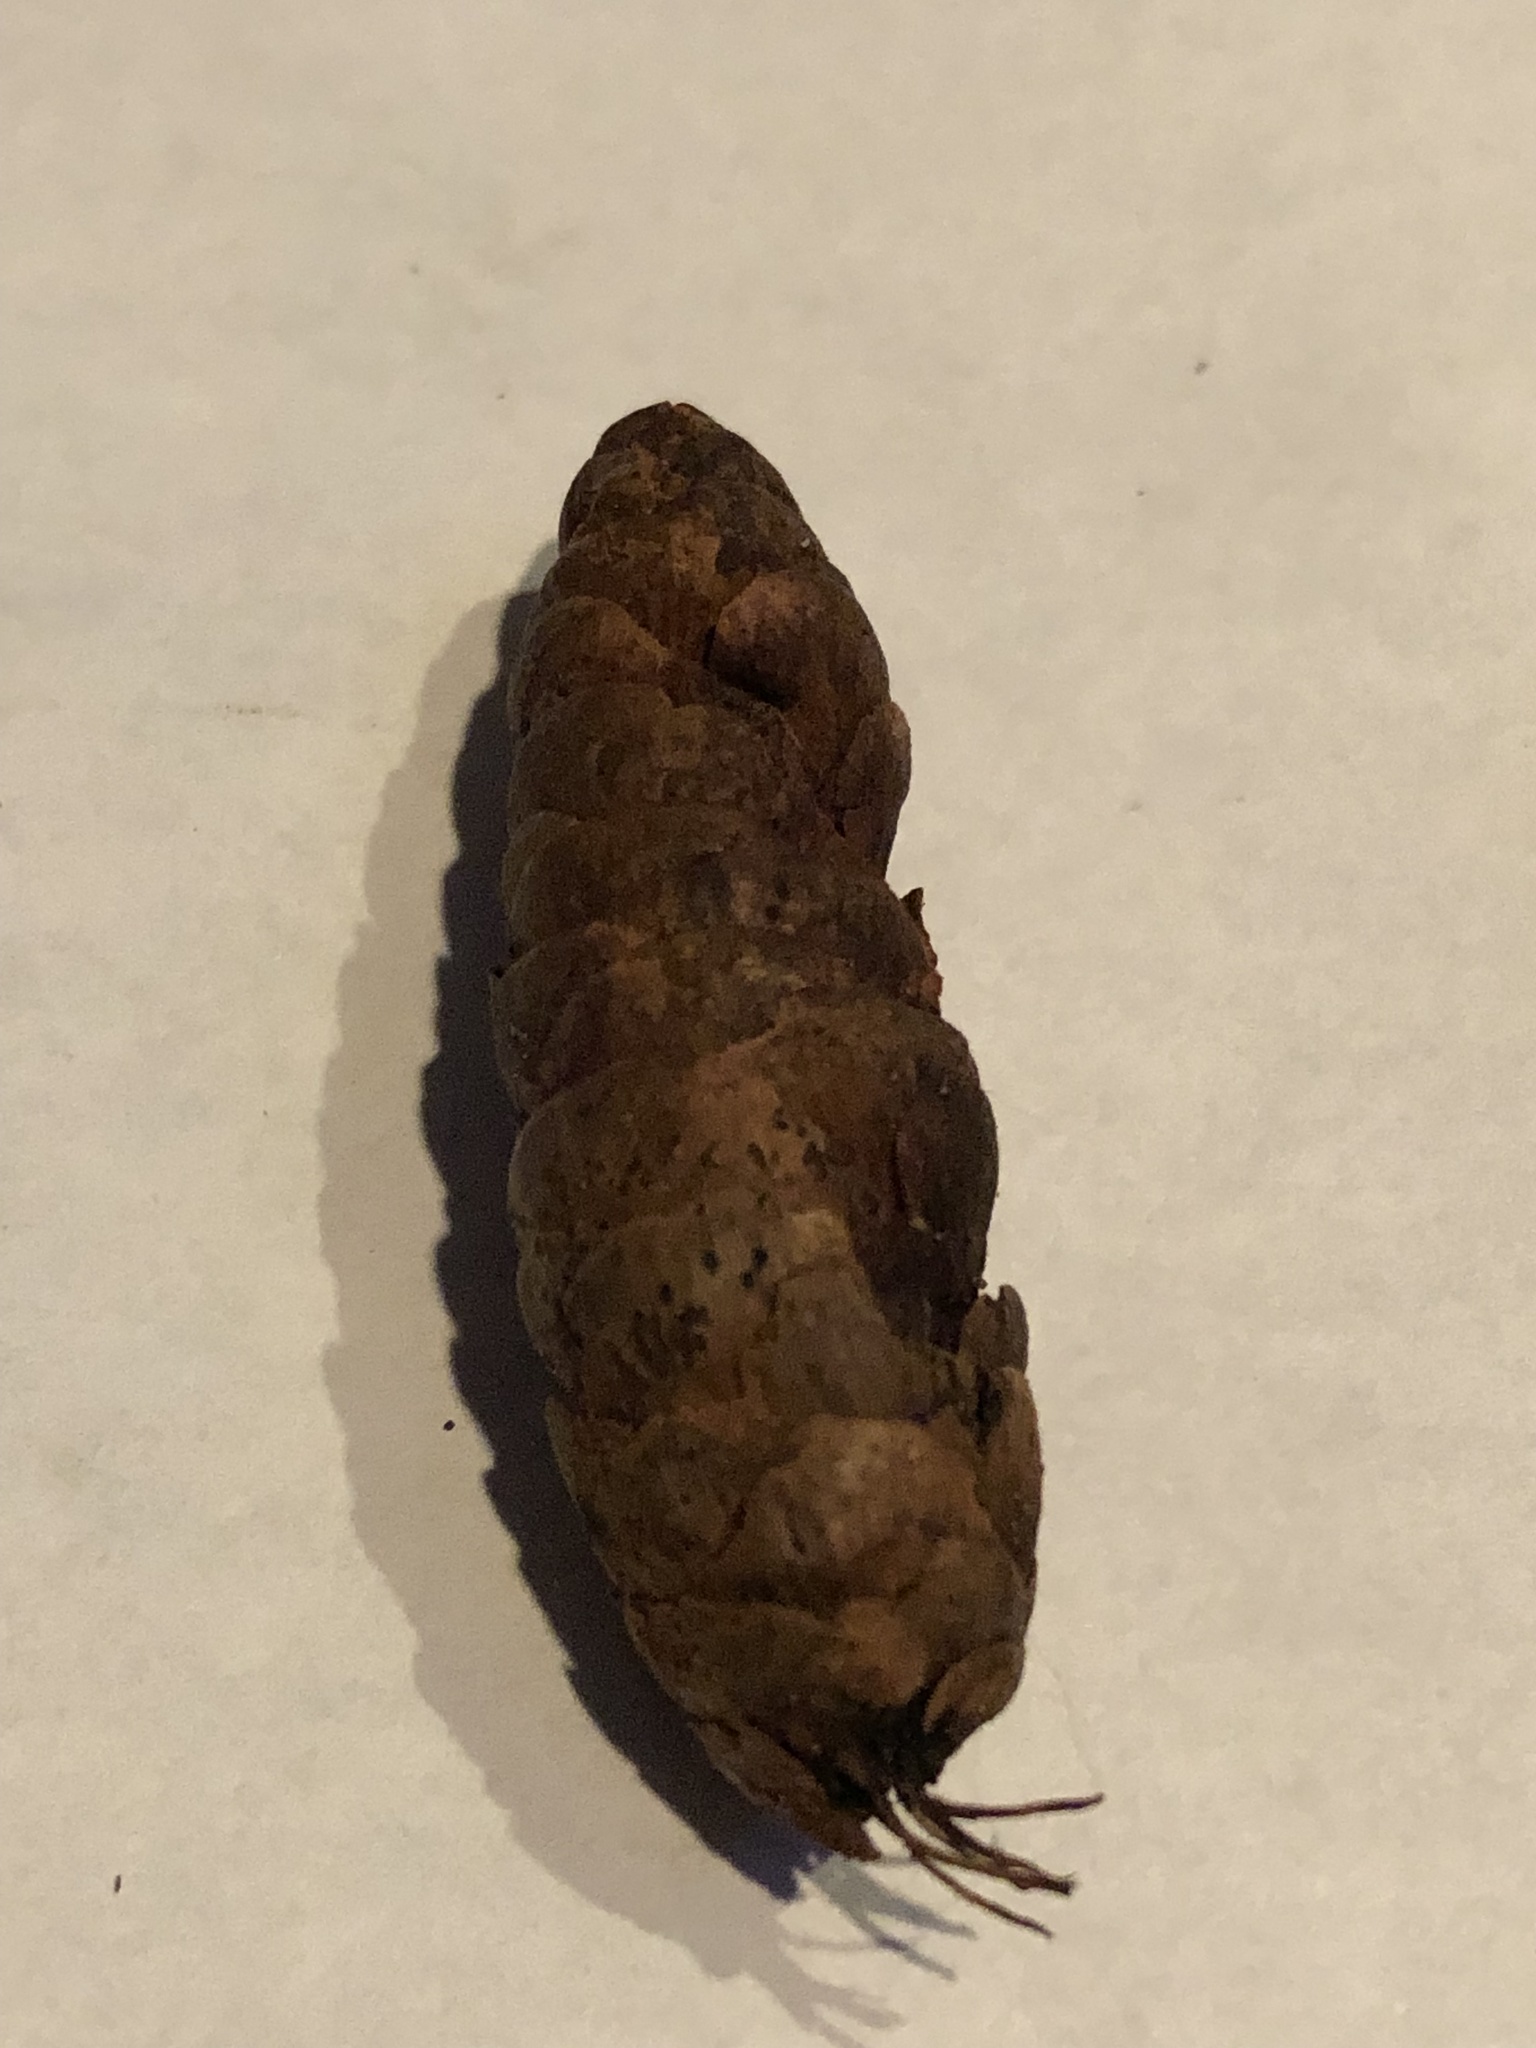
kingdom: Plantae
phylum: Tracheophyta
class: Pinopsida
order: Pinales
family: Pinaceae
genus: Picea
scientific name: Picea glauca
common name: White spruce
